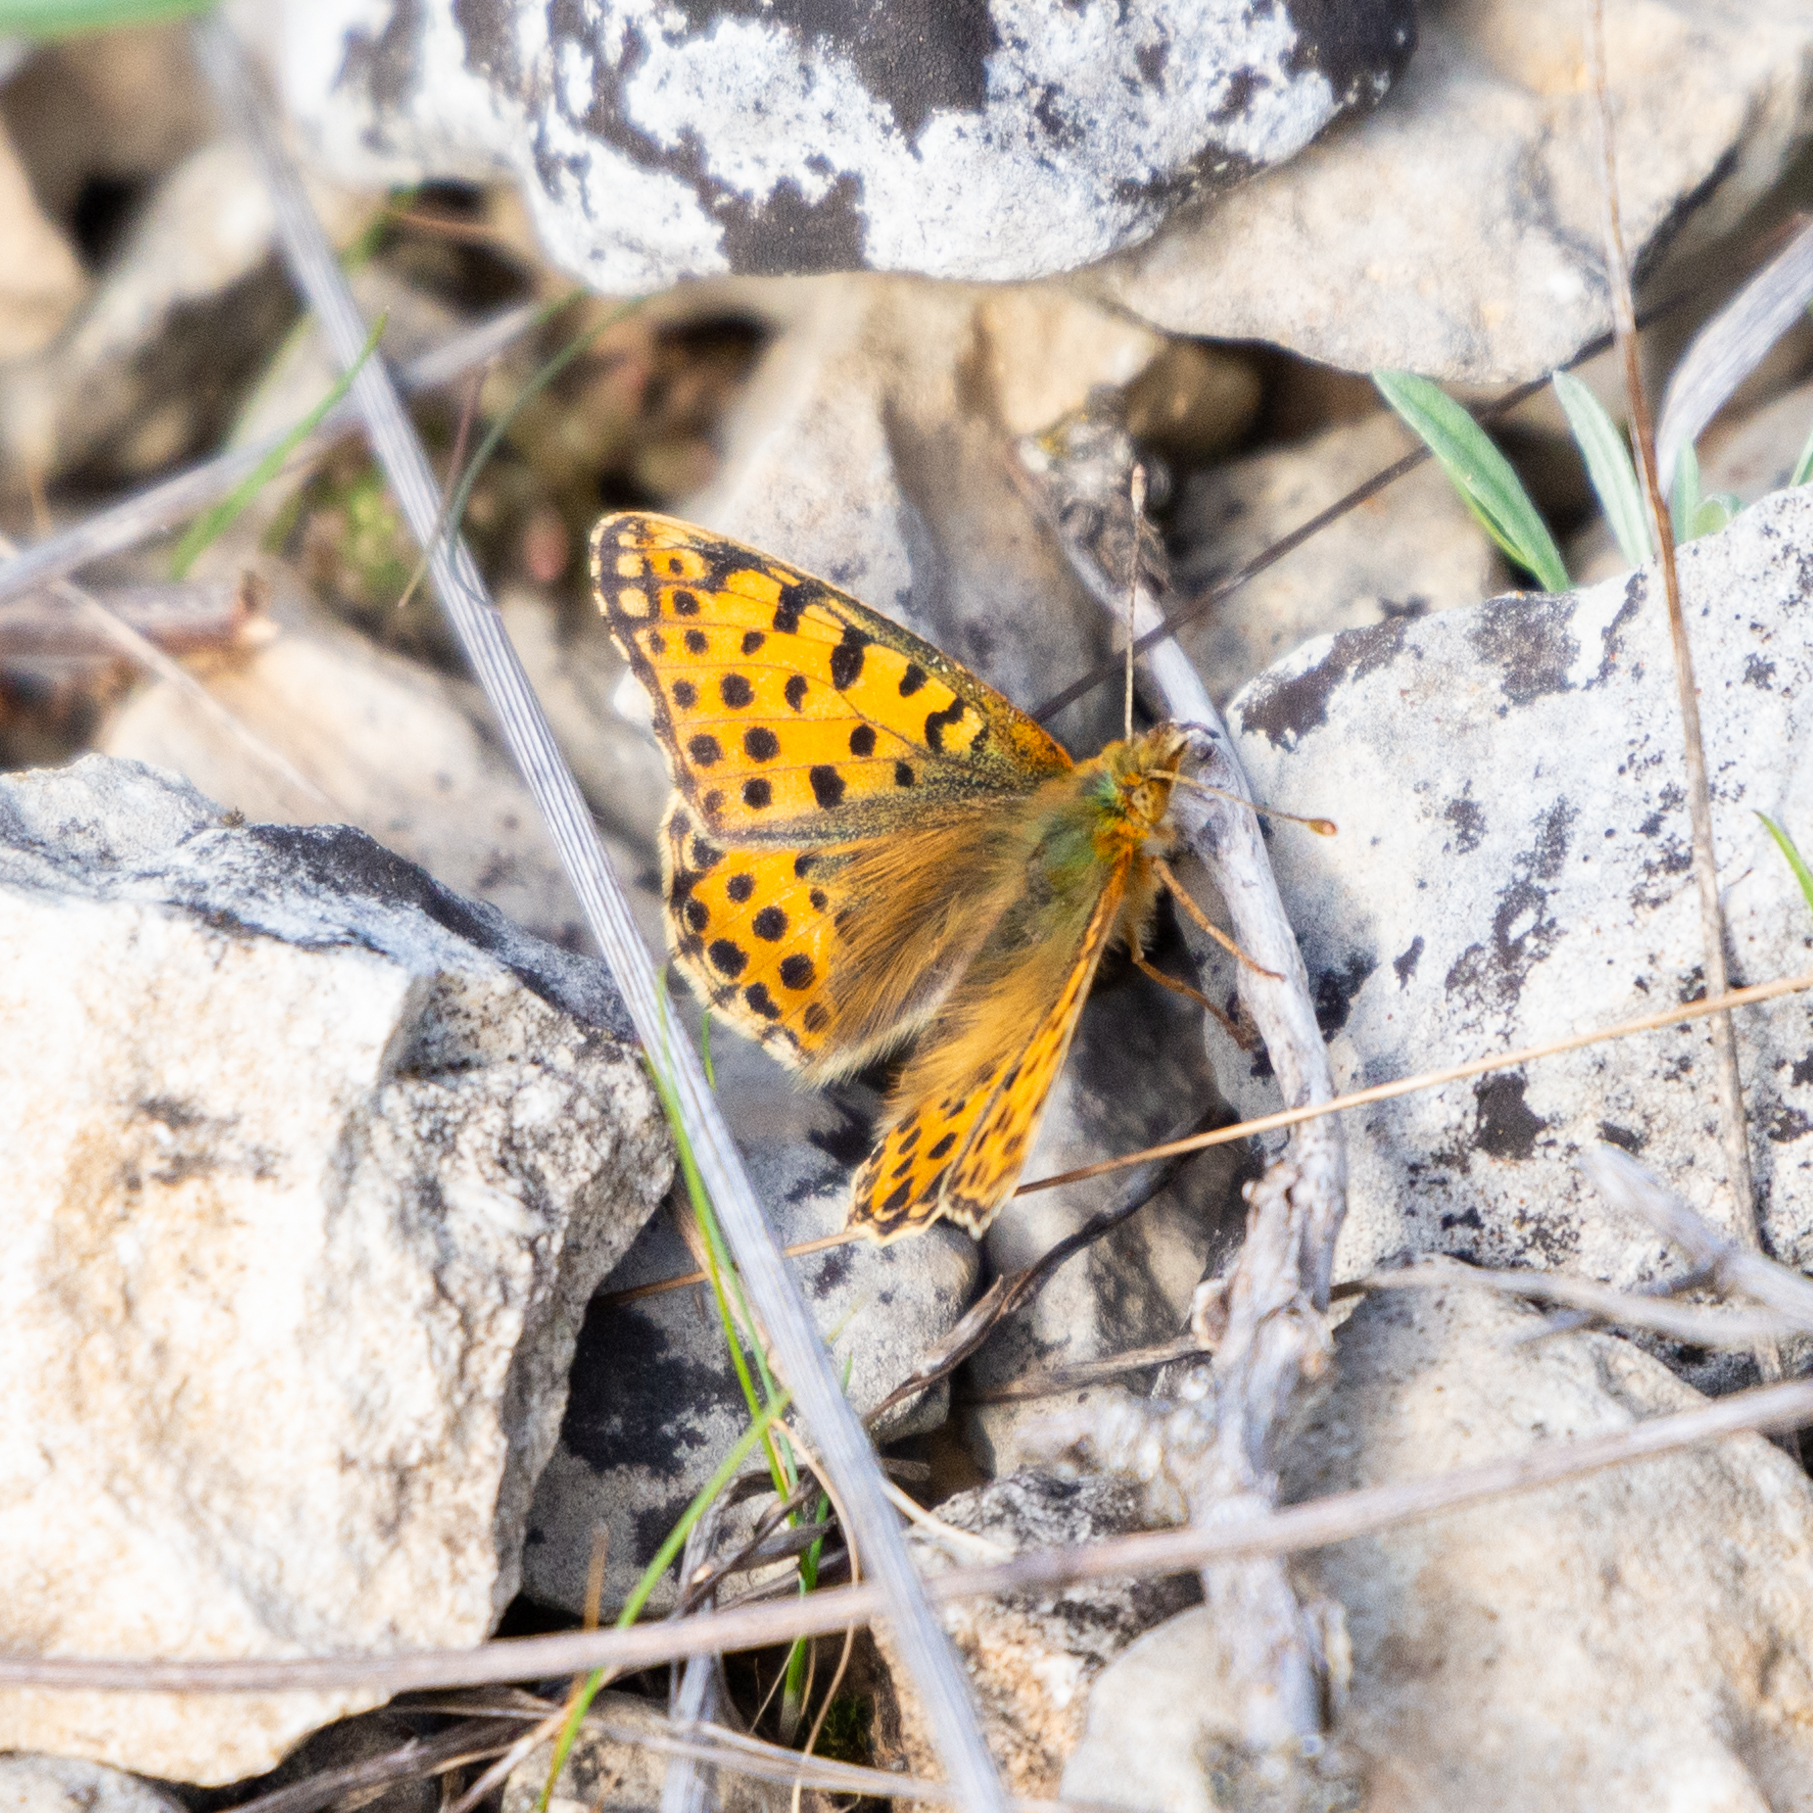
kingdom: Animalia
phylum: Arthropoda
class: Insecta
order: Lepidoptera
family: Nymphalidae
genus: Issoria
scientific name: Issoria lathonia
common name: Queen of spain fritillary
